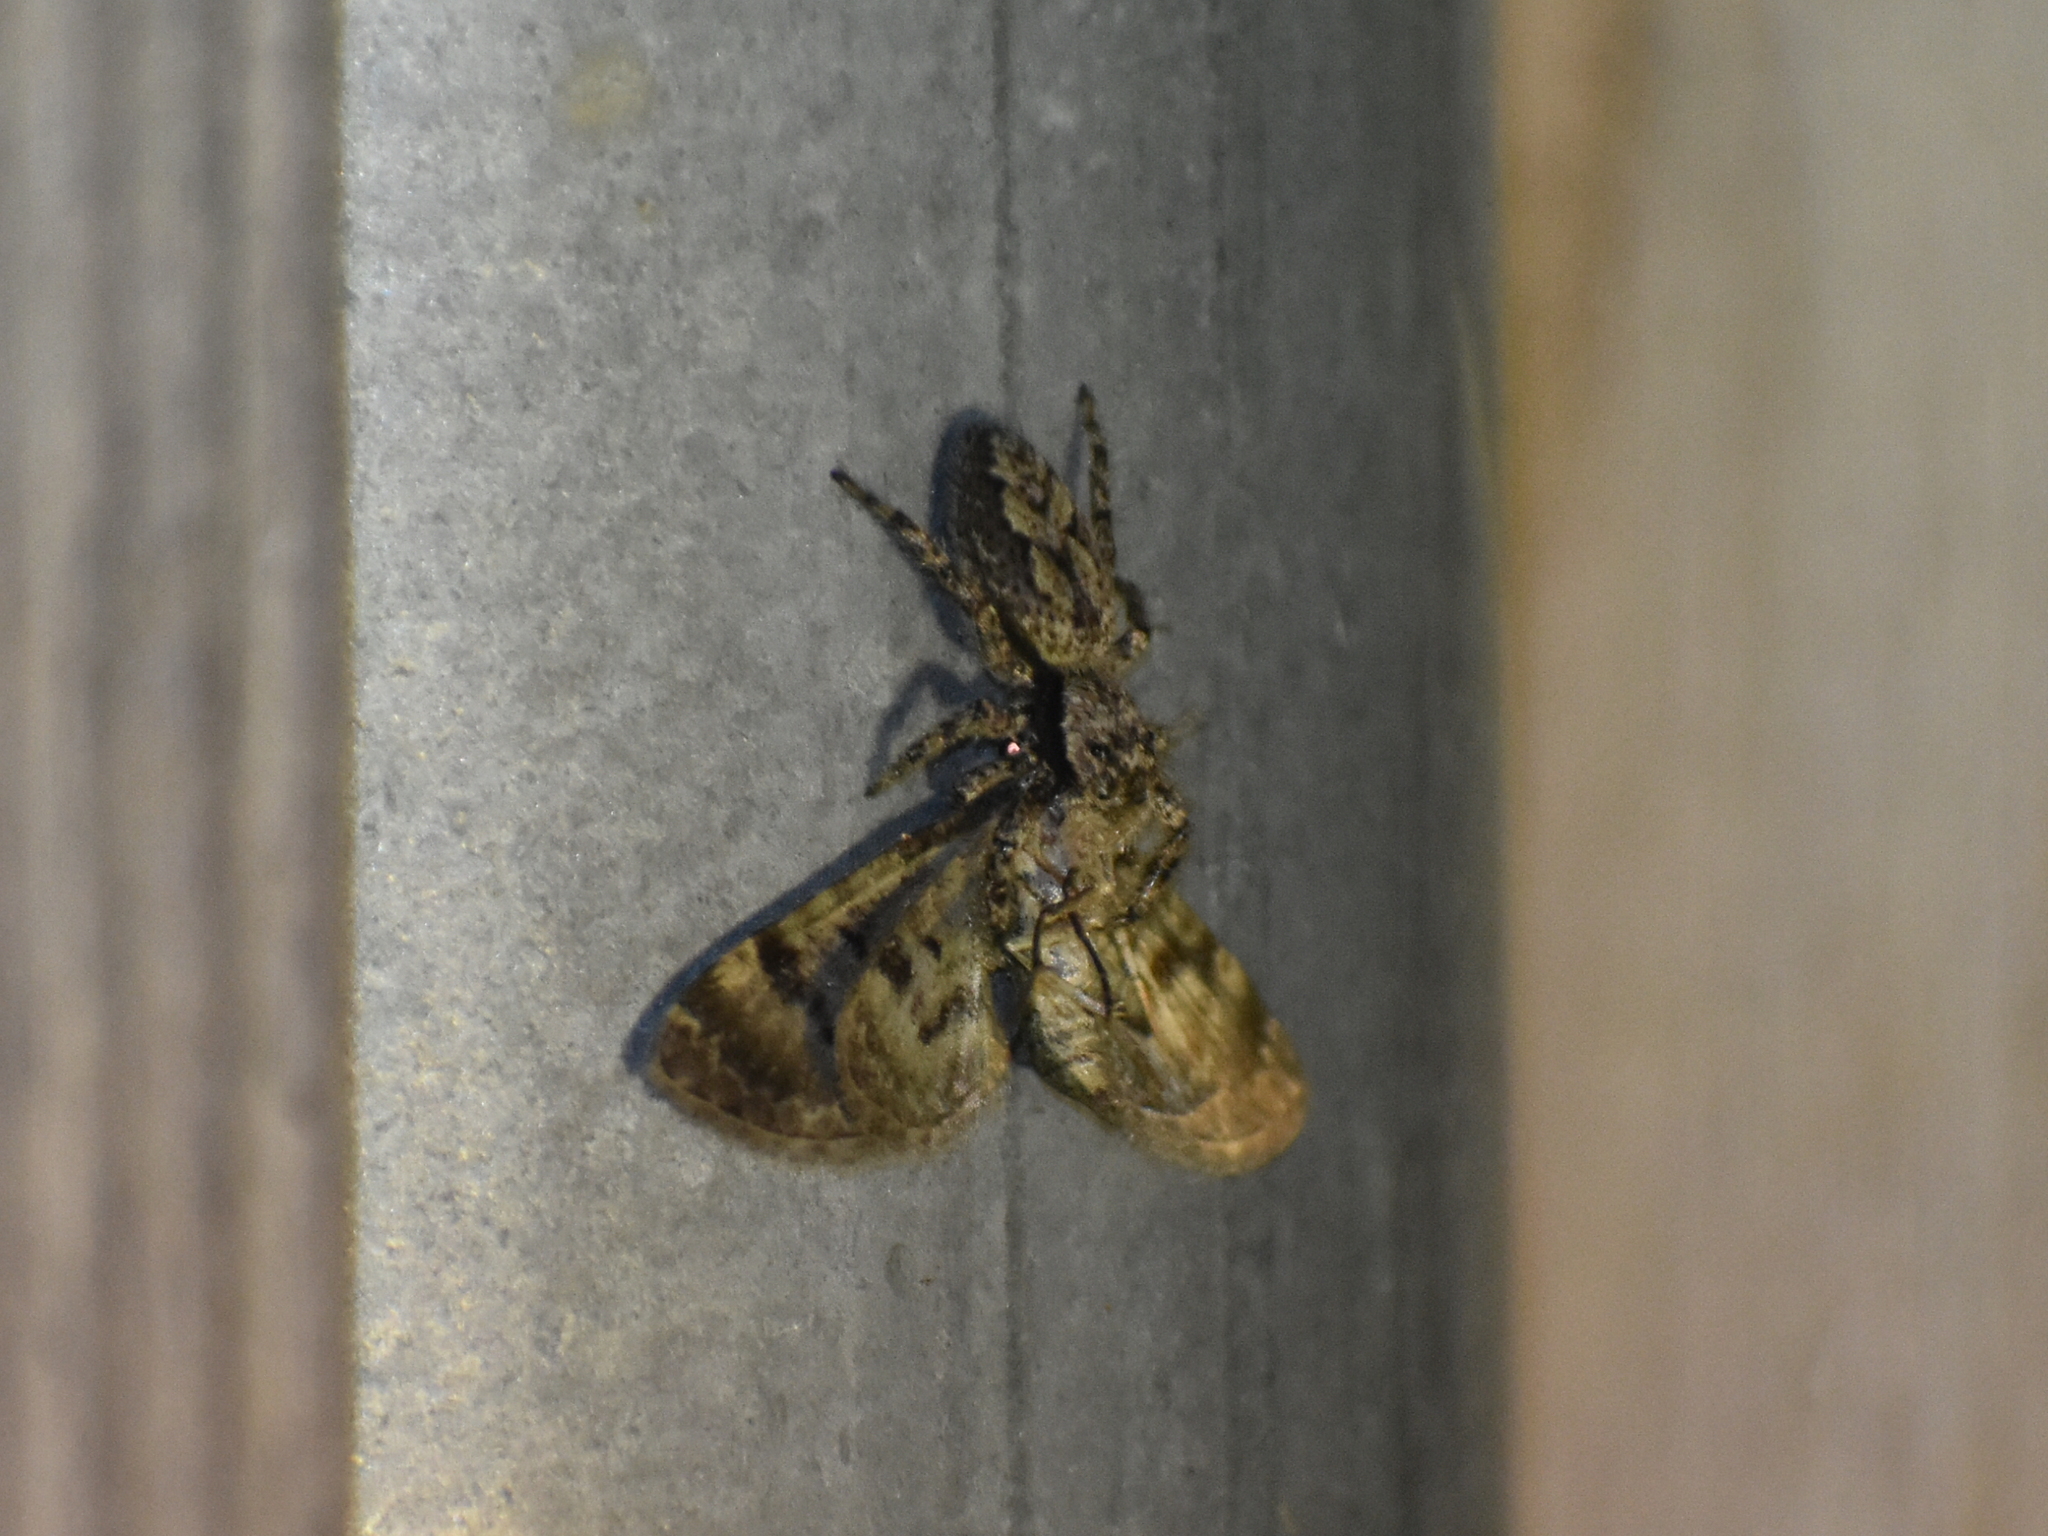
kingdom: Animalia
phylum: Arthropoda
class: Arachnida
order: Araneae
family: Salticidae
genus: Platycryptus
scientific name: Platycryptus undatus
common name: Tan jumping spider
